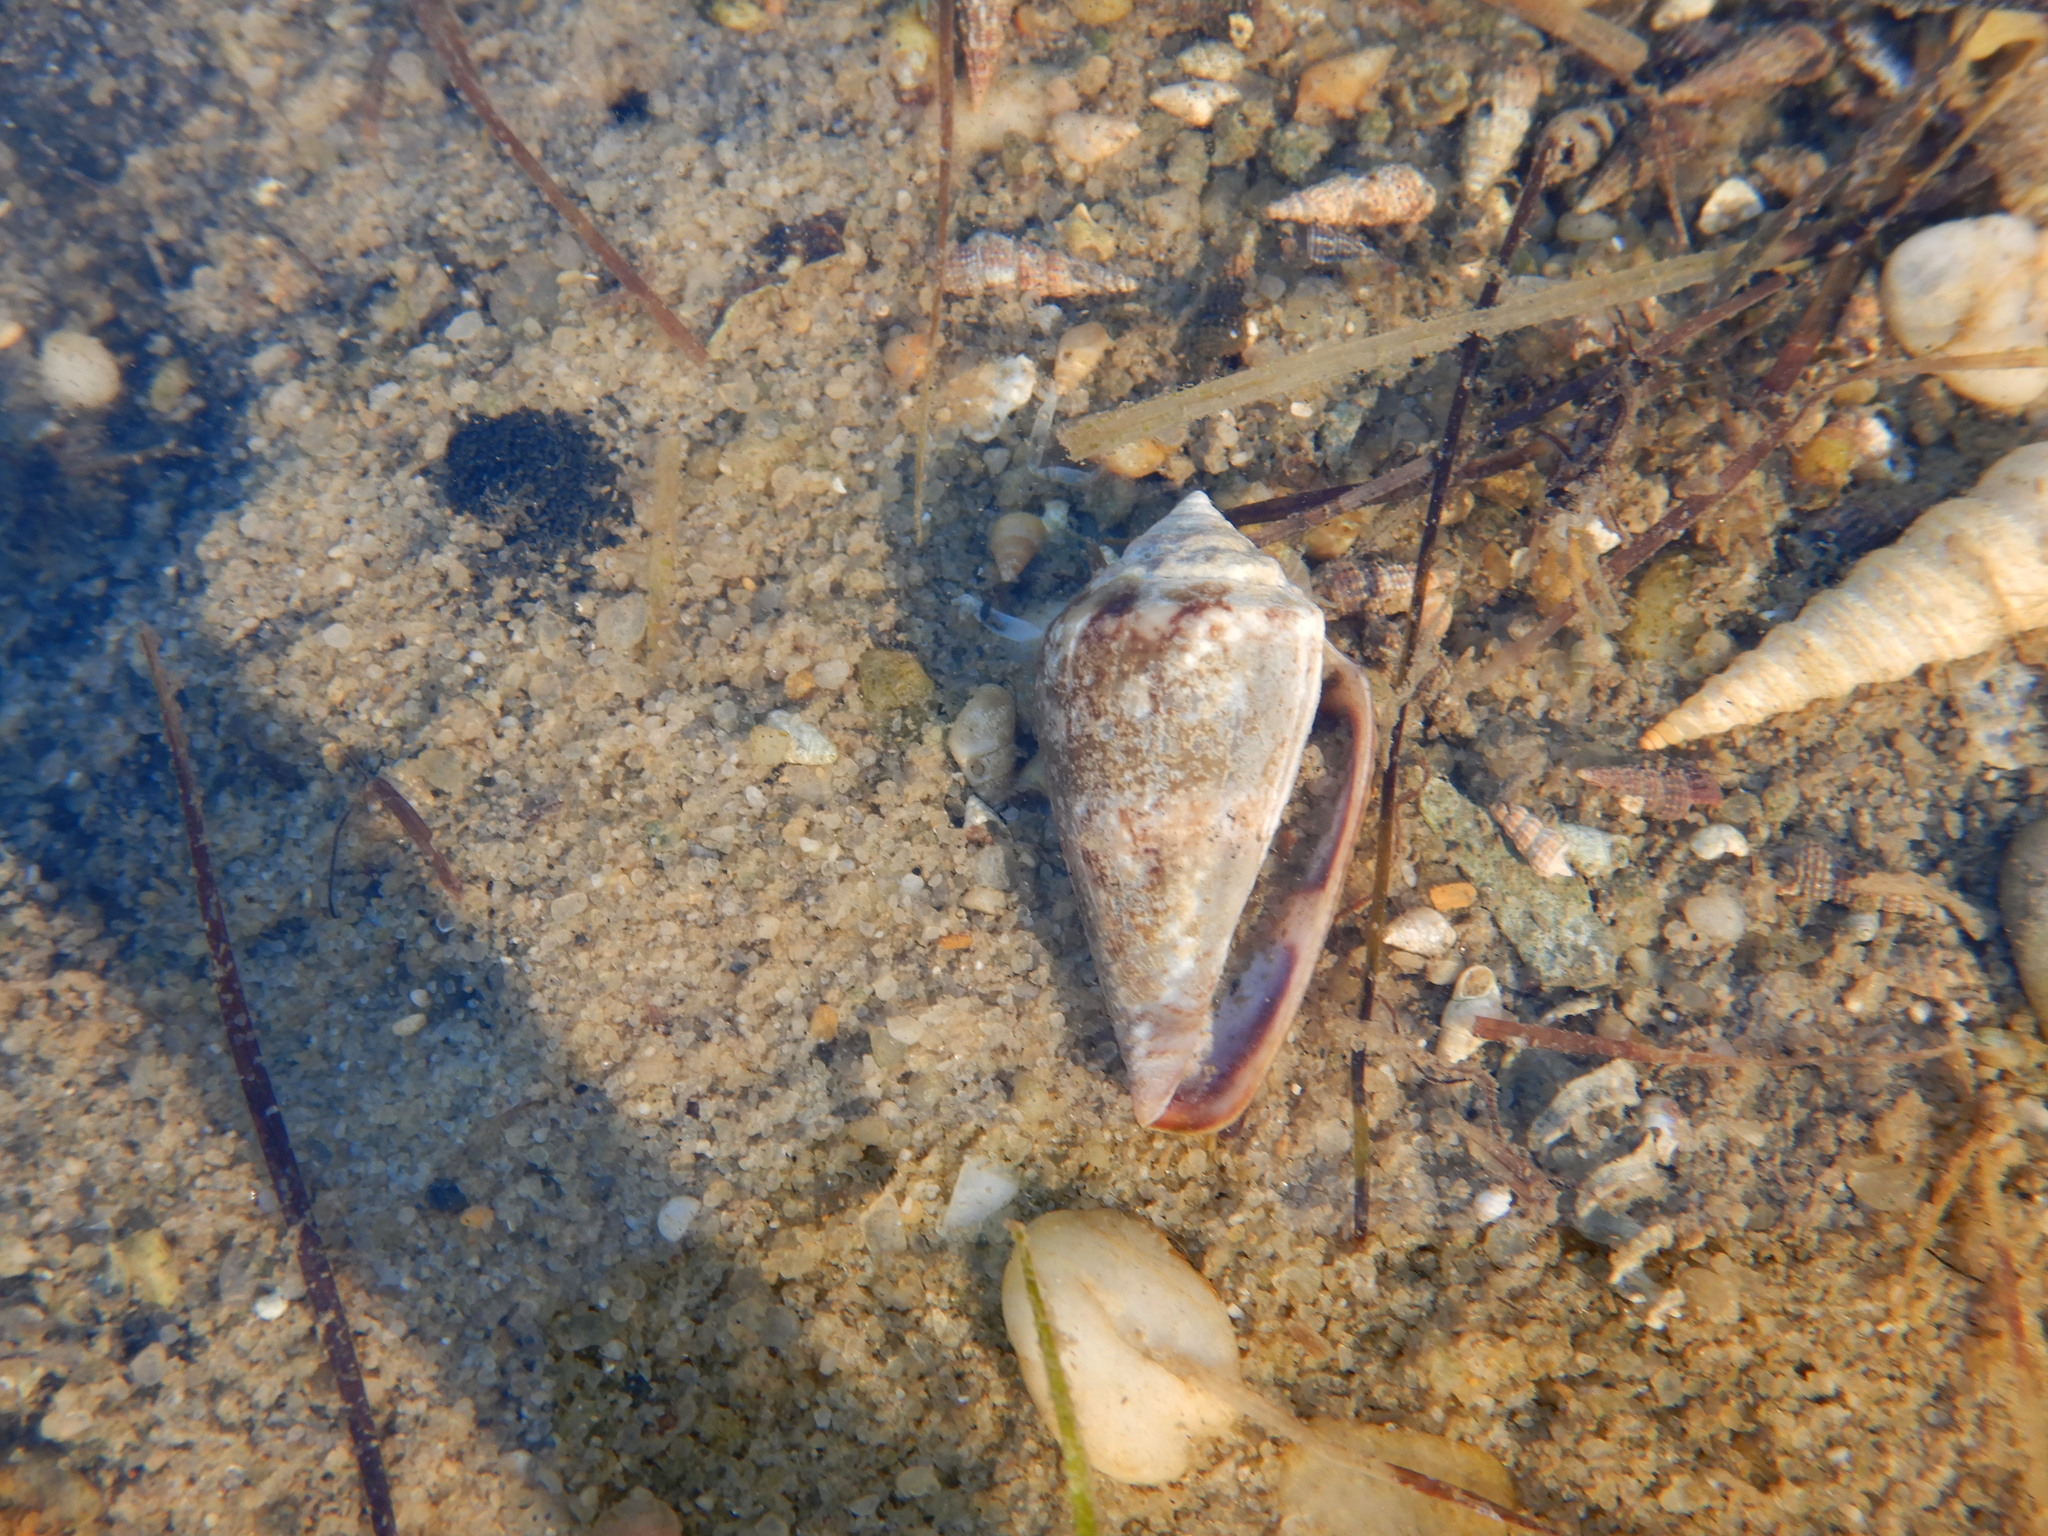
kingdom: Animalia
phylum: Mollusca
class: Gastropoda
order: Neogastropoda
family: Conidae
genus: Conus
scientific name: Conus ventricosus
